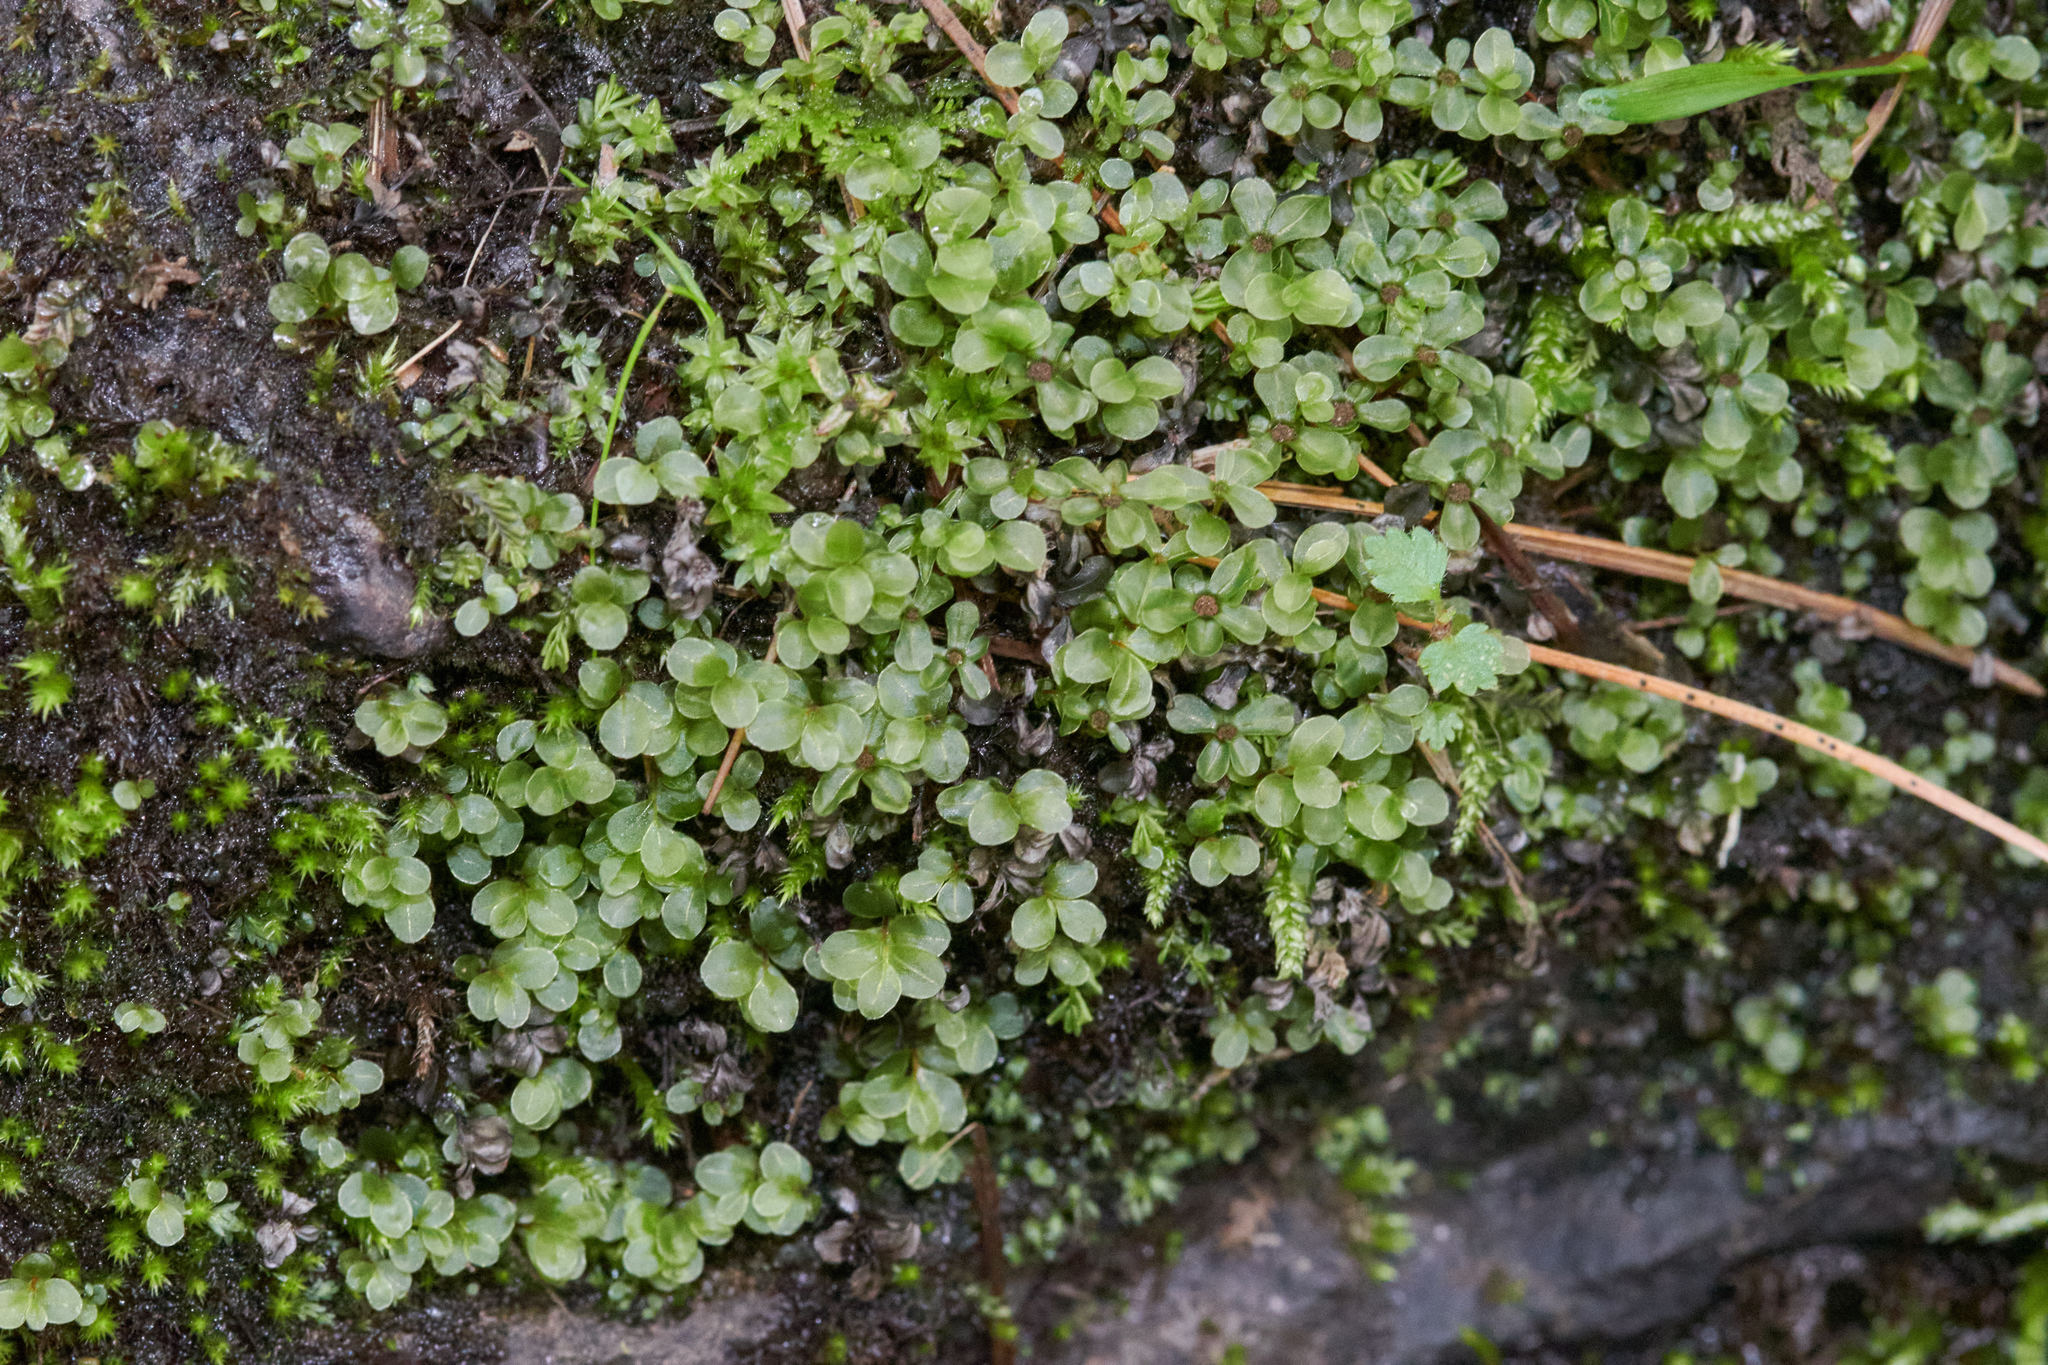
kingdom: Plantae
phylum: Bryophyta
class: Bryopsida
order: Bryales
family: Mniaceae
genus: Rhizomnium
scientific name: Rhizomnium punctatum
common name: Dotted leafy moss
